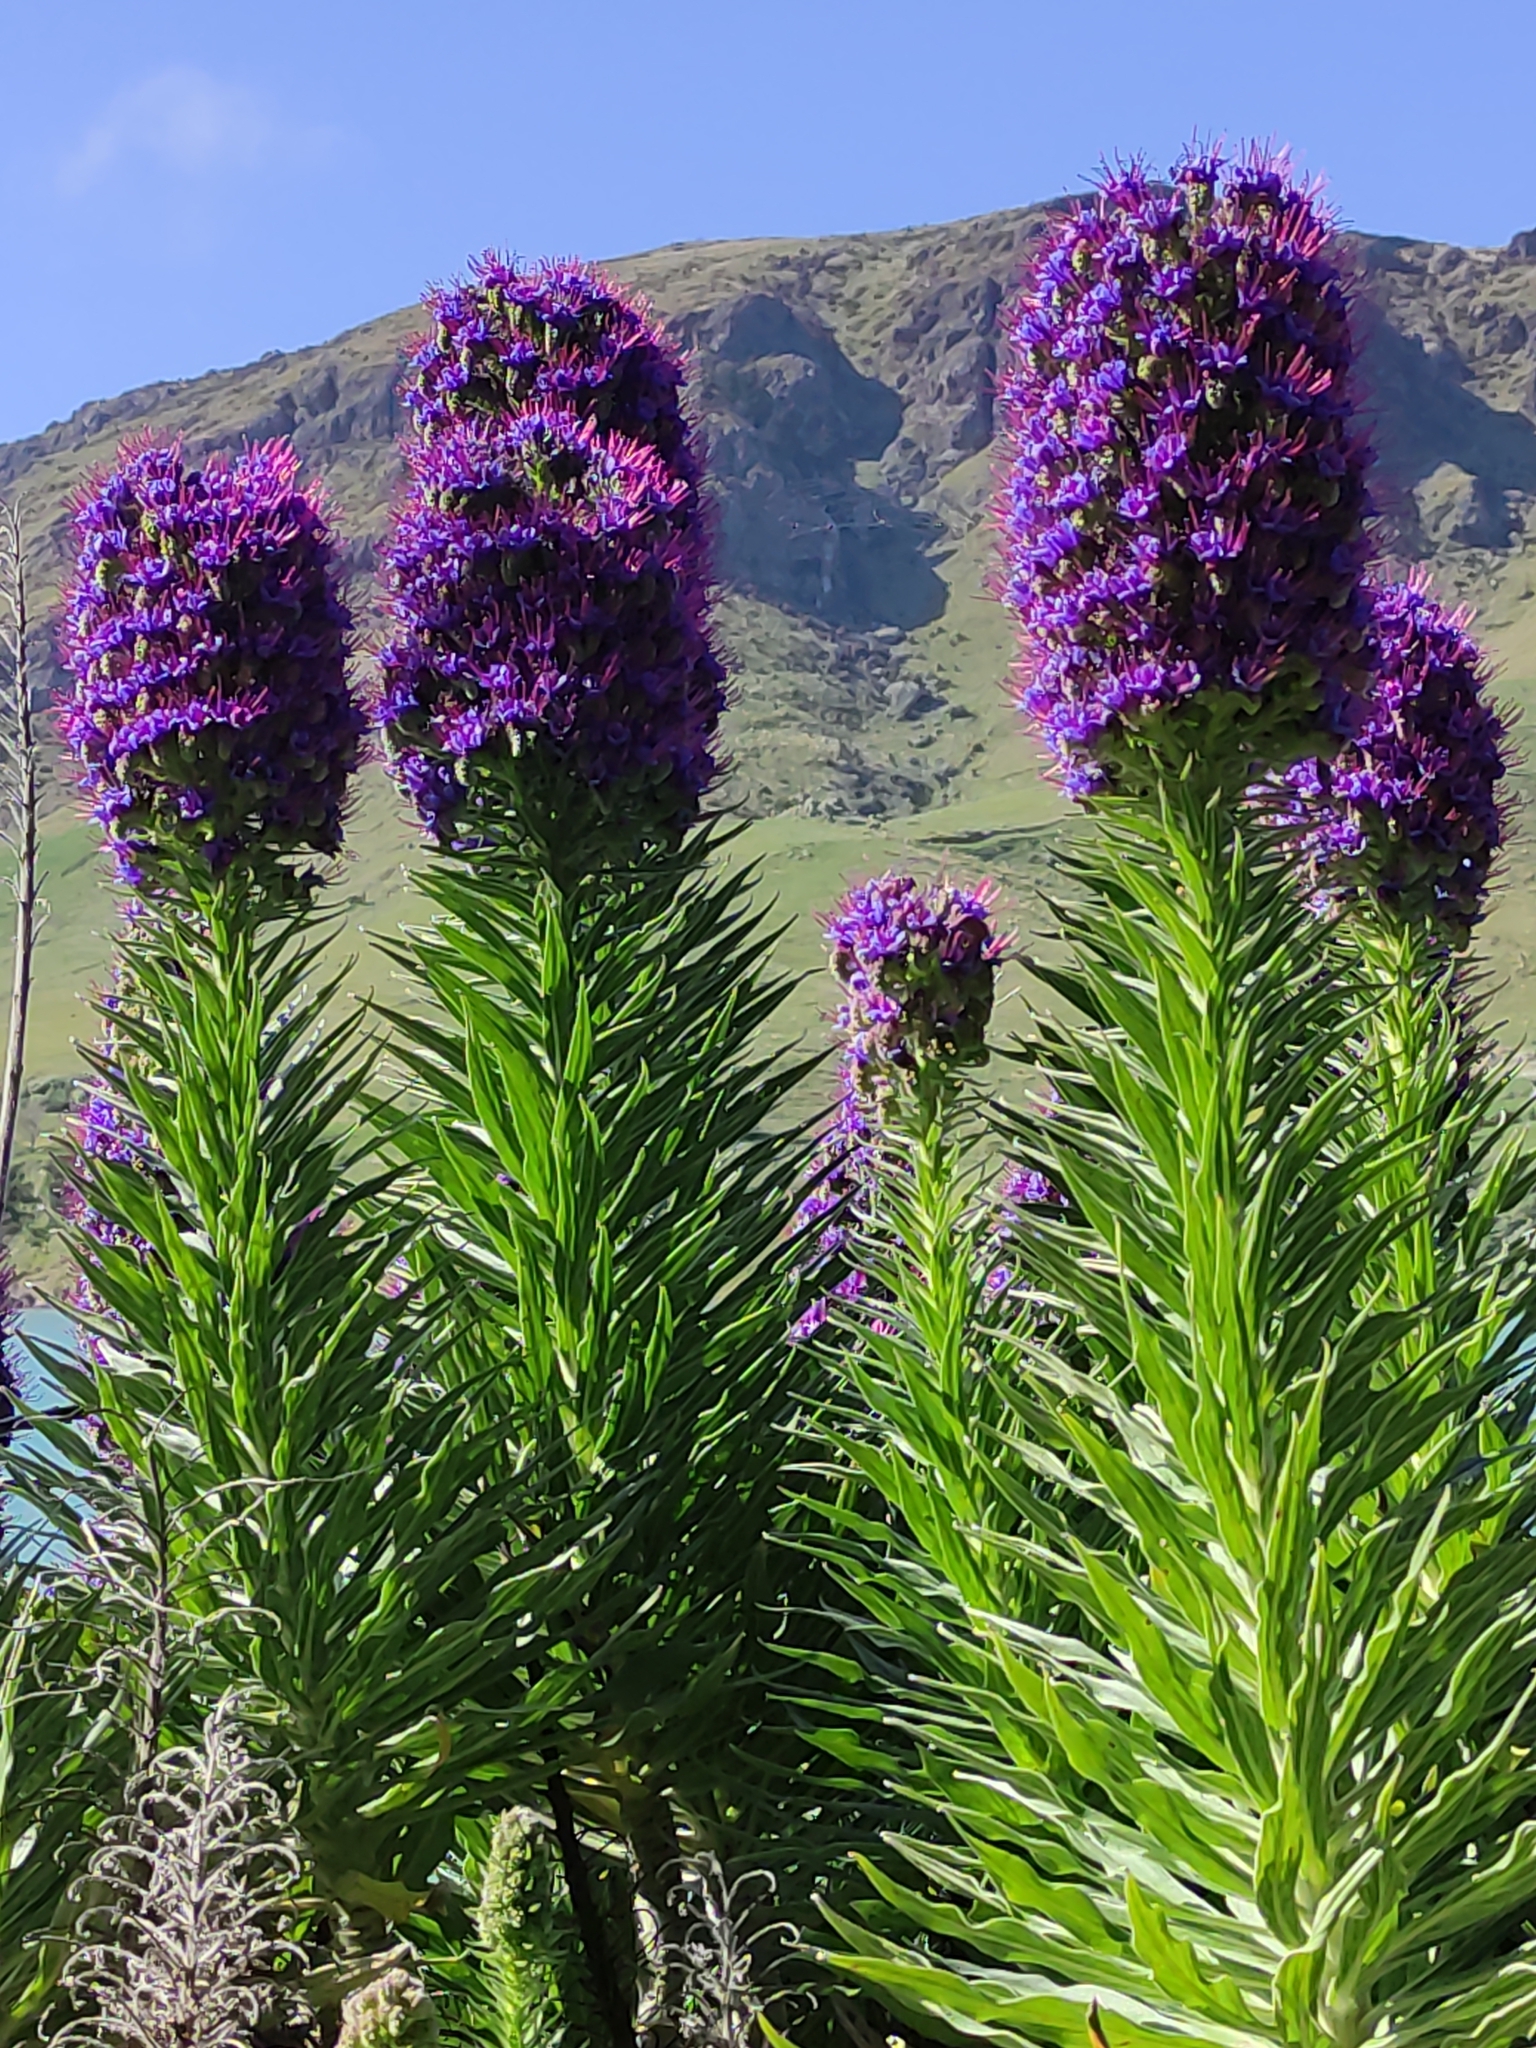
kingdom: Plantae
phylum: Tracheophyta
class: Magnoliopsida
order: Boraginales
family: Boraginaceae
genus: Echium
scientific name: Echium candicans
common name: Pride of madeira
